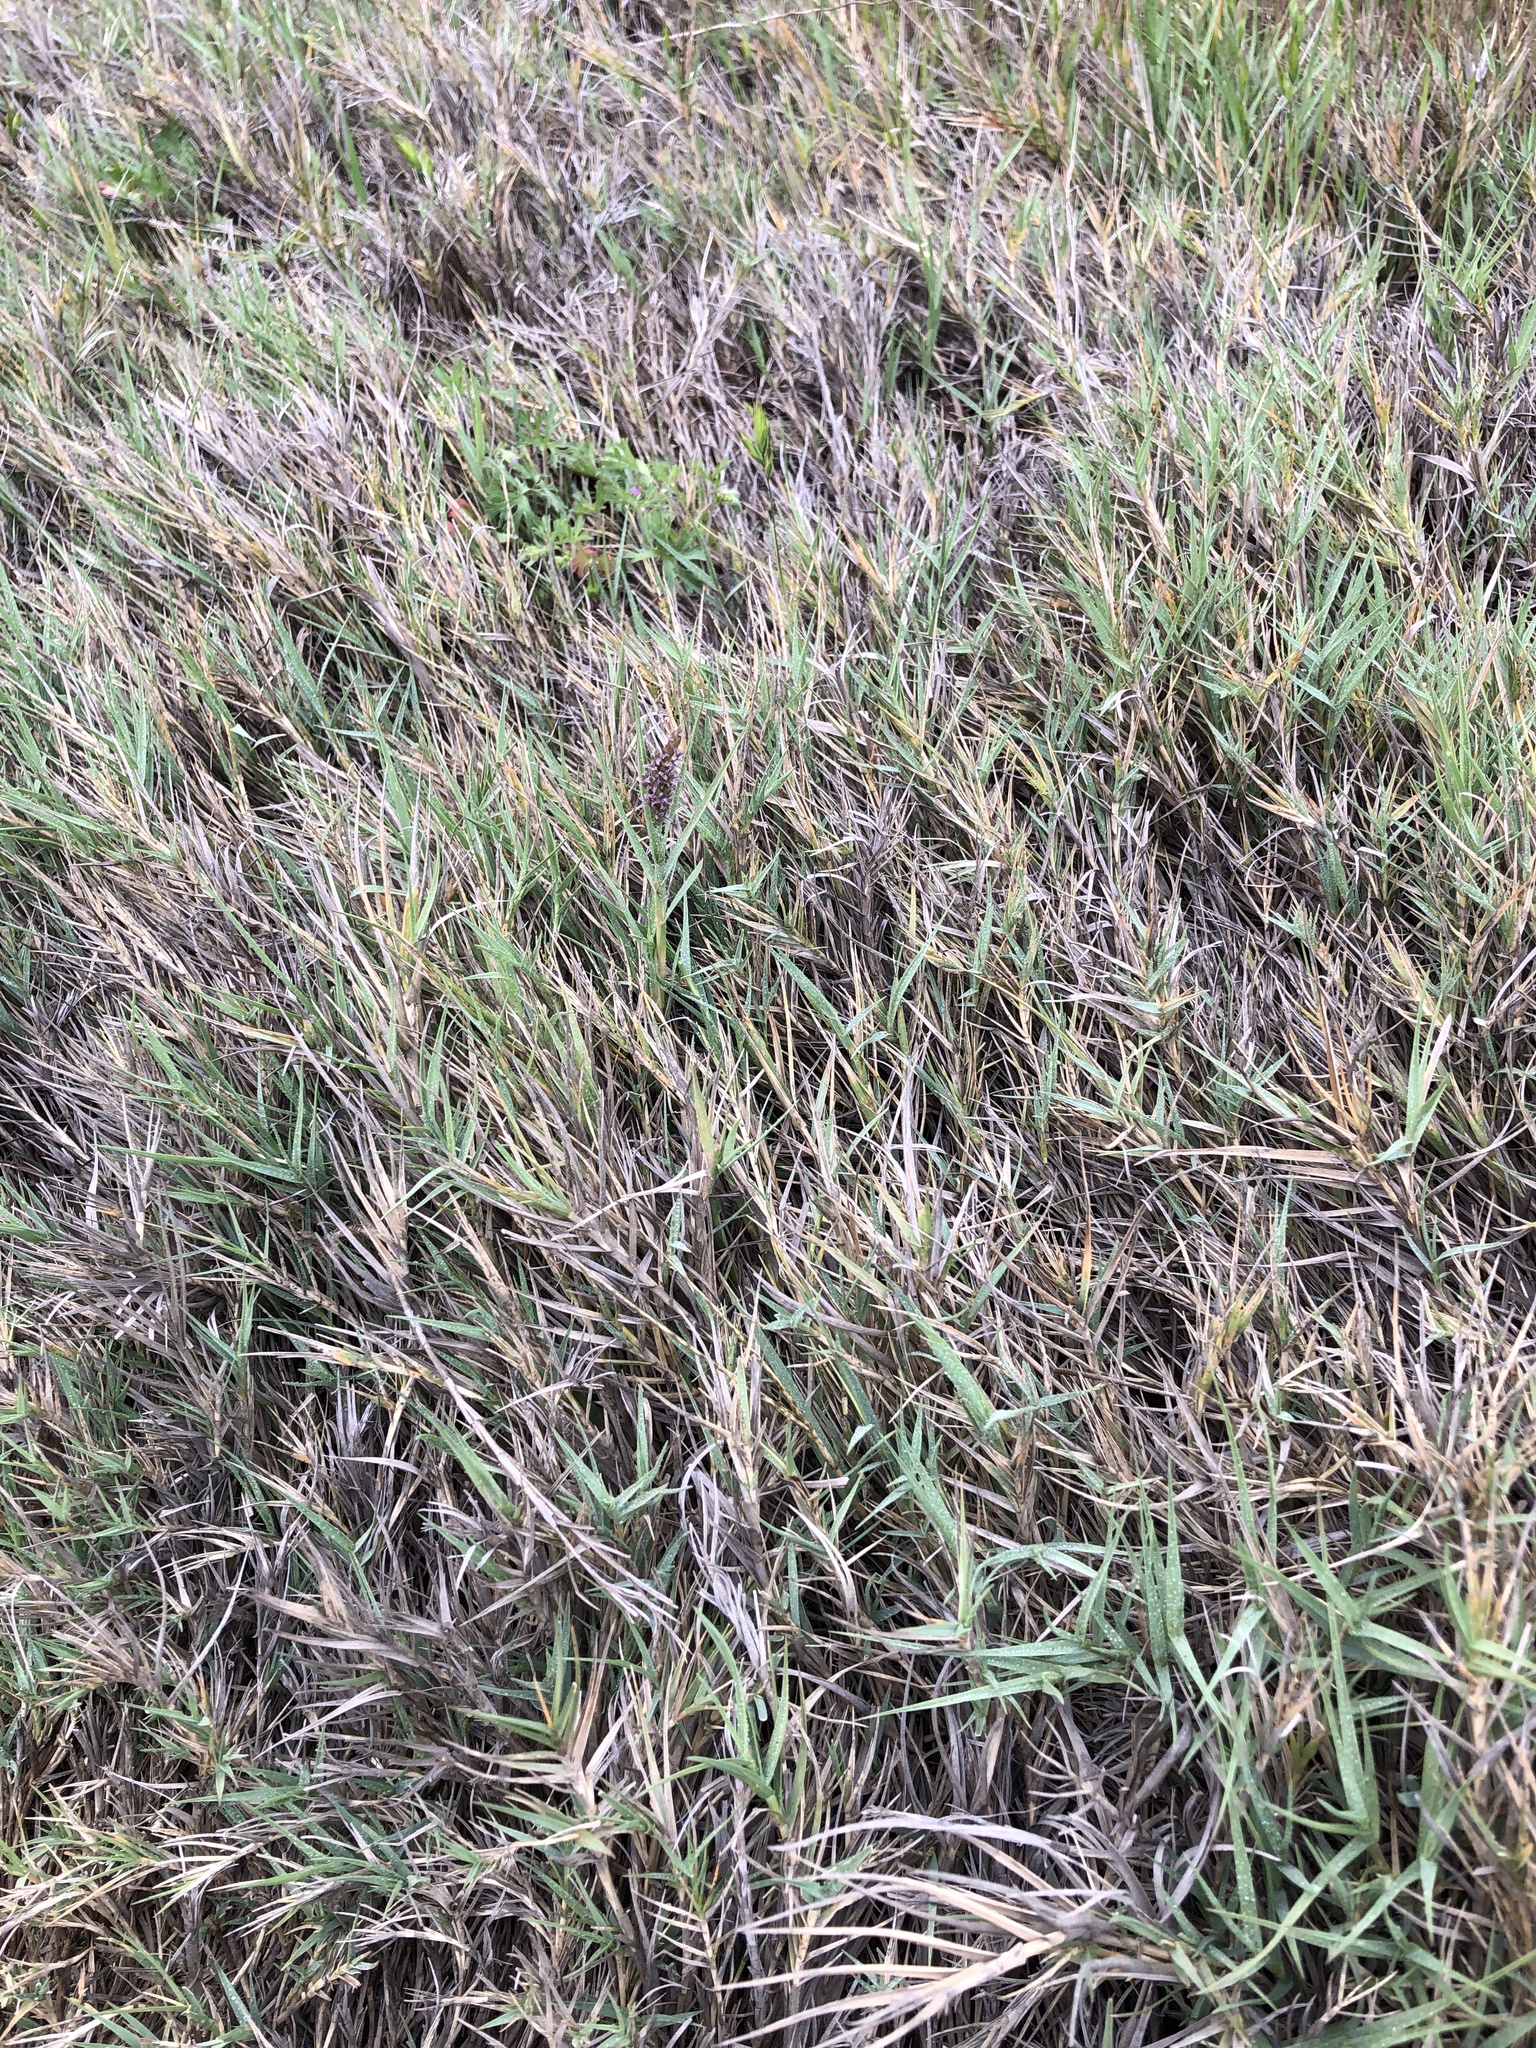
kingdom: Plantae
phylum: Tracheophyta
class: Liliopsida
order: Poales
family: Poaceae
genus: Distichlis
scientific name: Distichlis spicata
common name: Saltgrass
